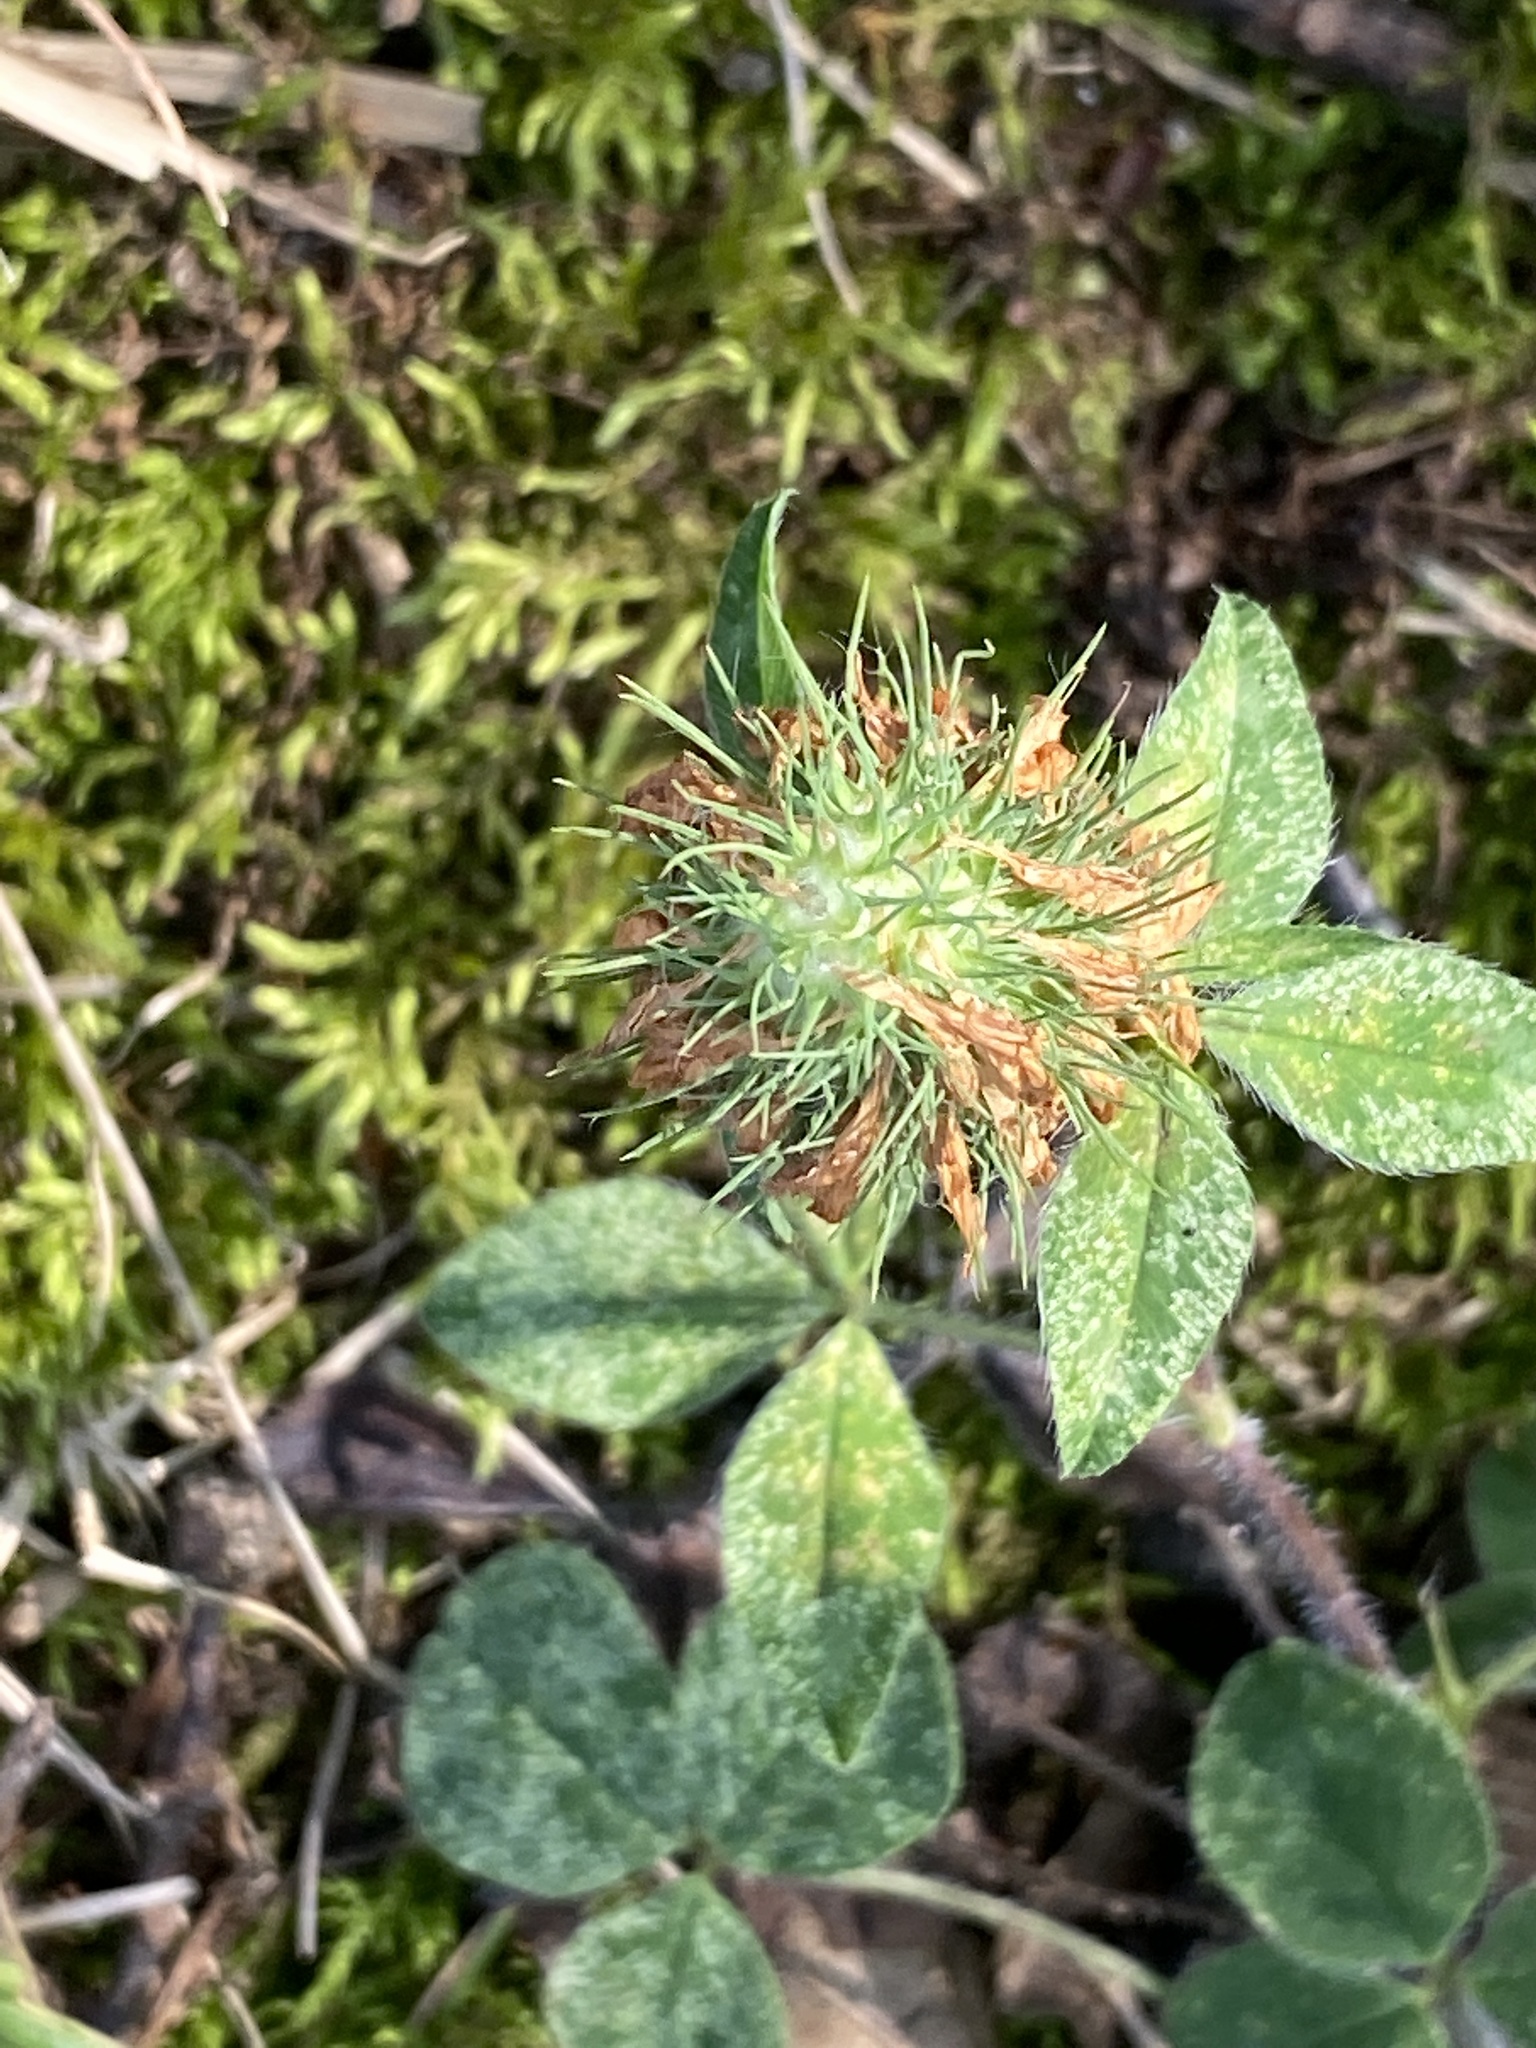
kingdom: Plantae
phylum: Tracheophyta
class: Magnoliopsida
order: Fabales
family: Fabaceae
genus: Trifolium
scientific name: Trifolium pratense
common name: Red clover
